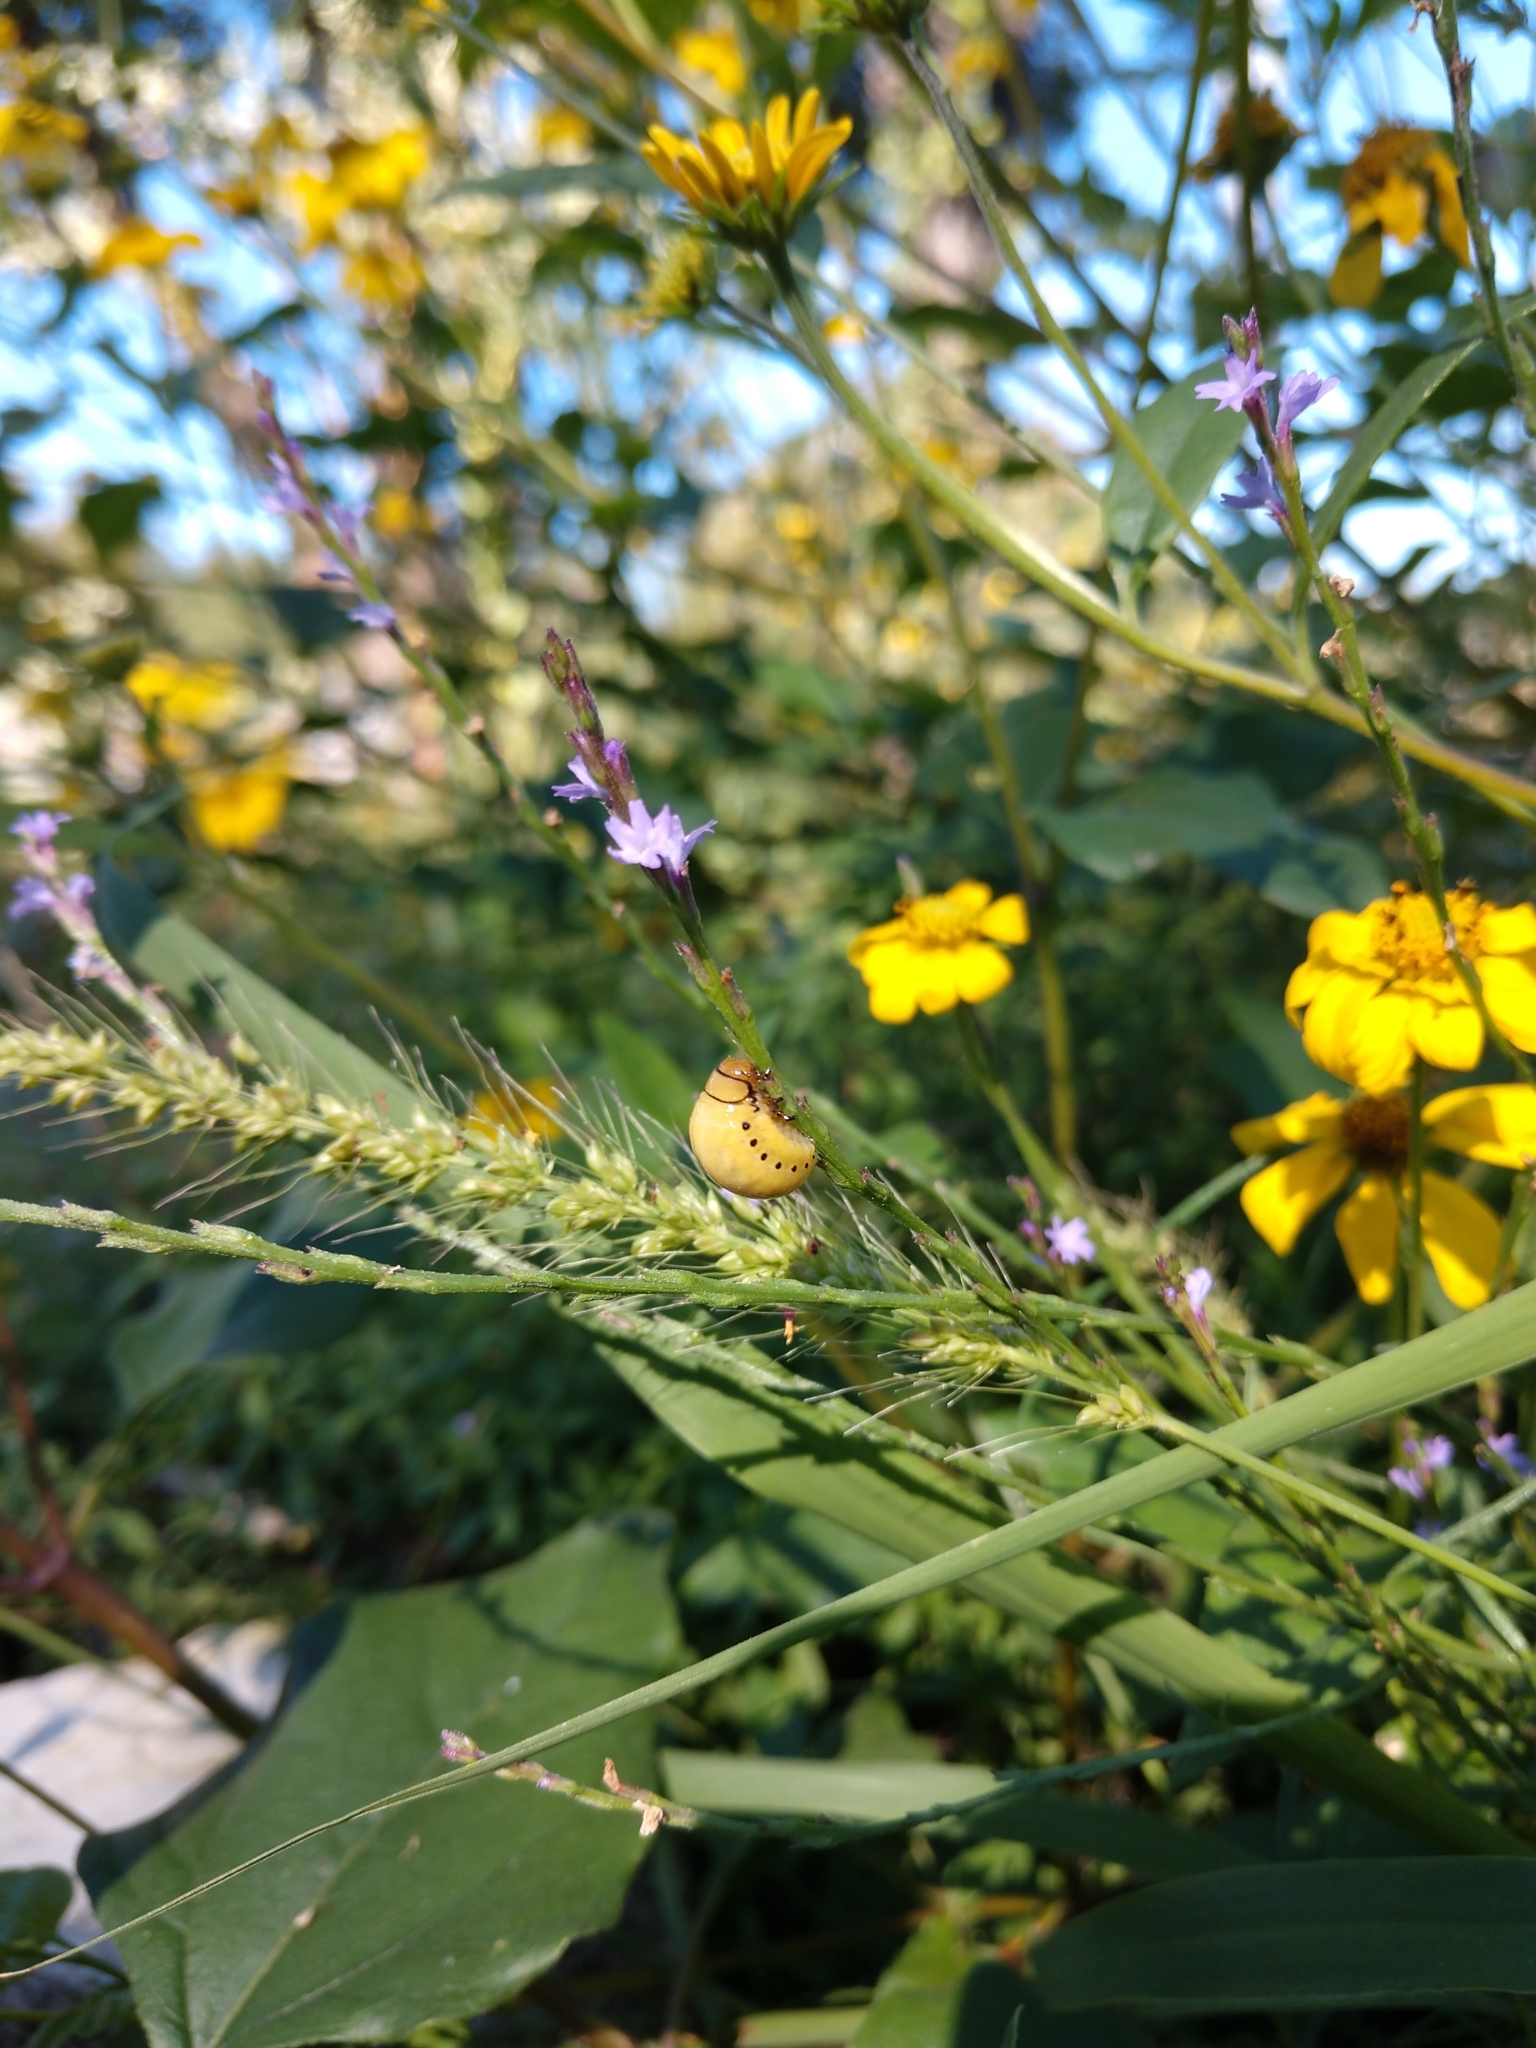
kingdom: Animalia
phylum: Arthropoda
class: Insecta
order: Coleoptera
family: Chrysomelidae
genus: Labidomera
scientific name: Labidomera clivicollis
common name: Swamp milkweed leaf beetle
